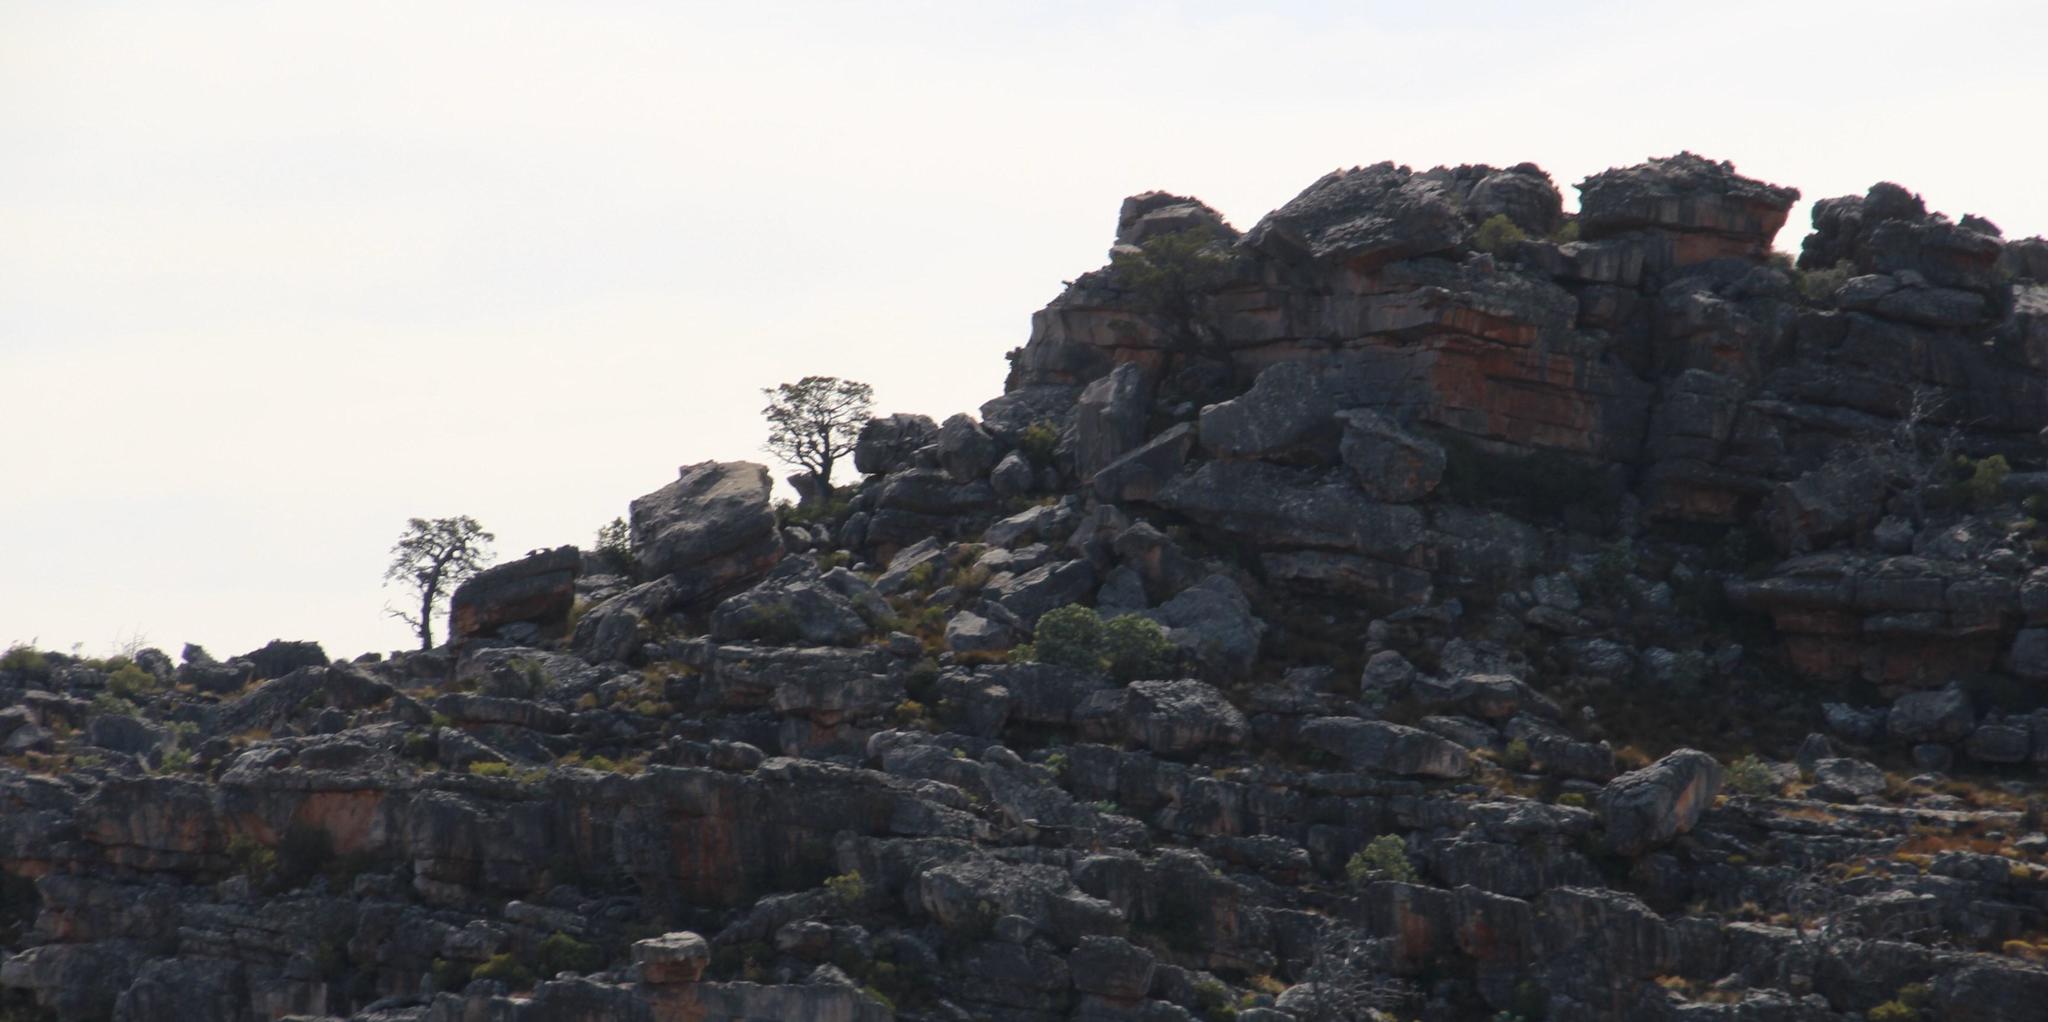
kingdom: Plantae
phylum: Tracheophyta
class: Pinopsida
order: Pinales
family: Cupressaceae
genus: Widdringtonia
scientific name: Widdringtonia nodiflora
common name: Cape cypress
